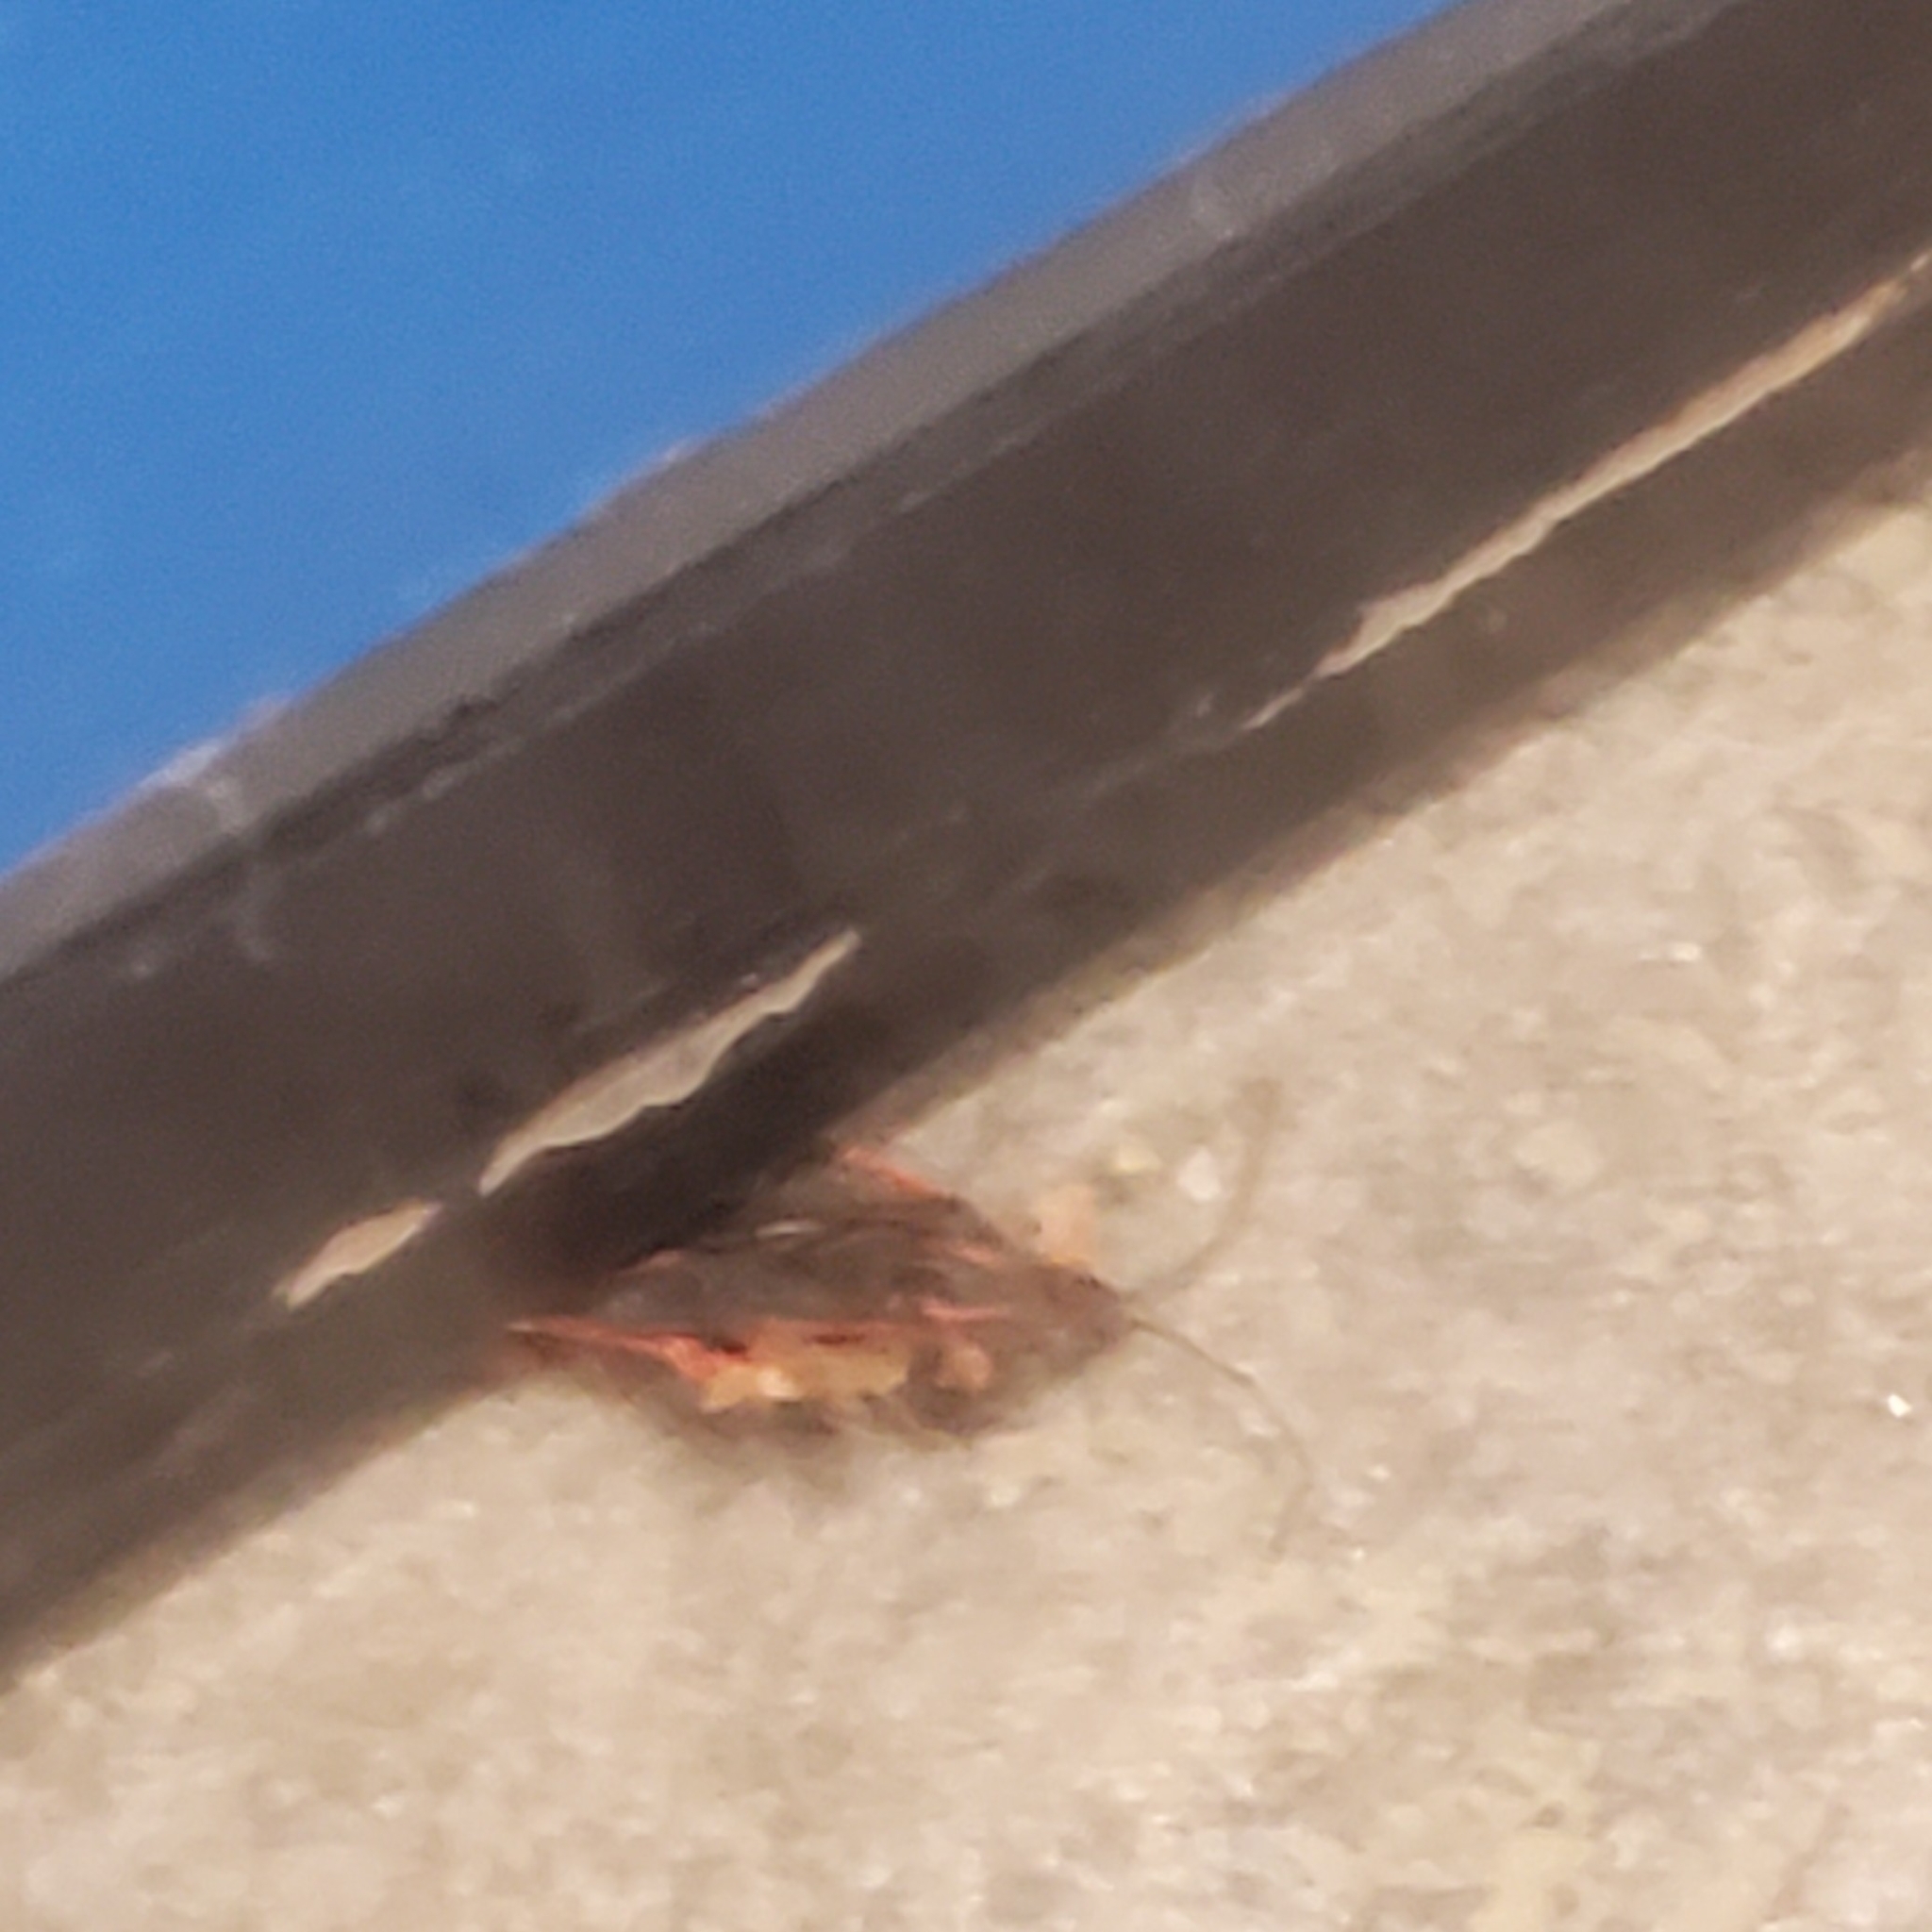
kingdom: Animalia
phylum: Arthropoda
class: Insecta
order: Hemiptera
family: Rhopalidae
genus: Boisea
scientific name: Boisea trivittata
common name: Boxelder bug
